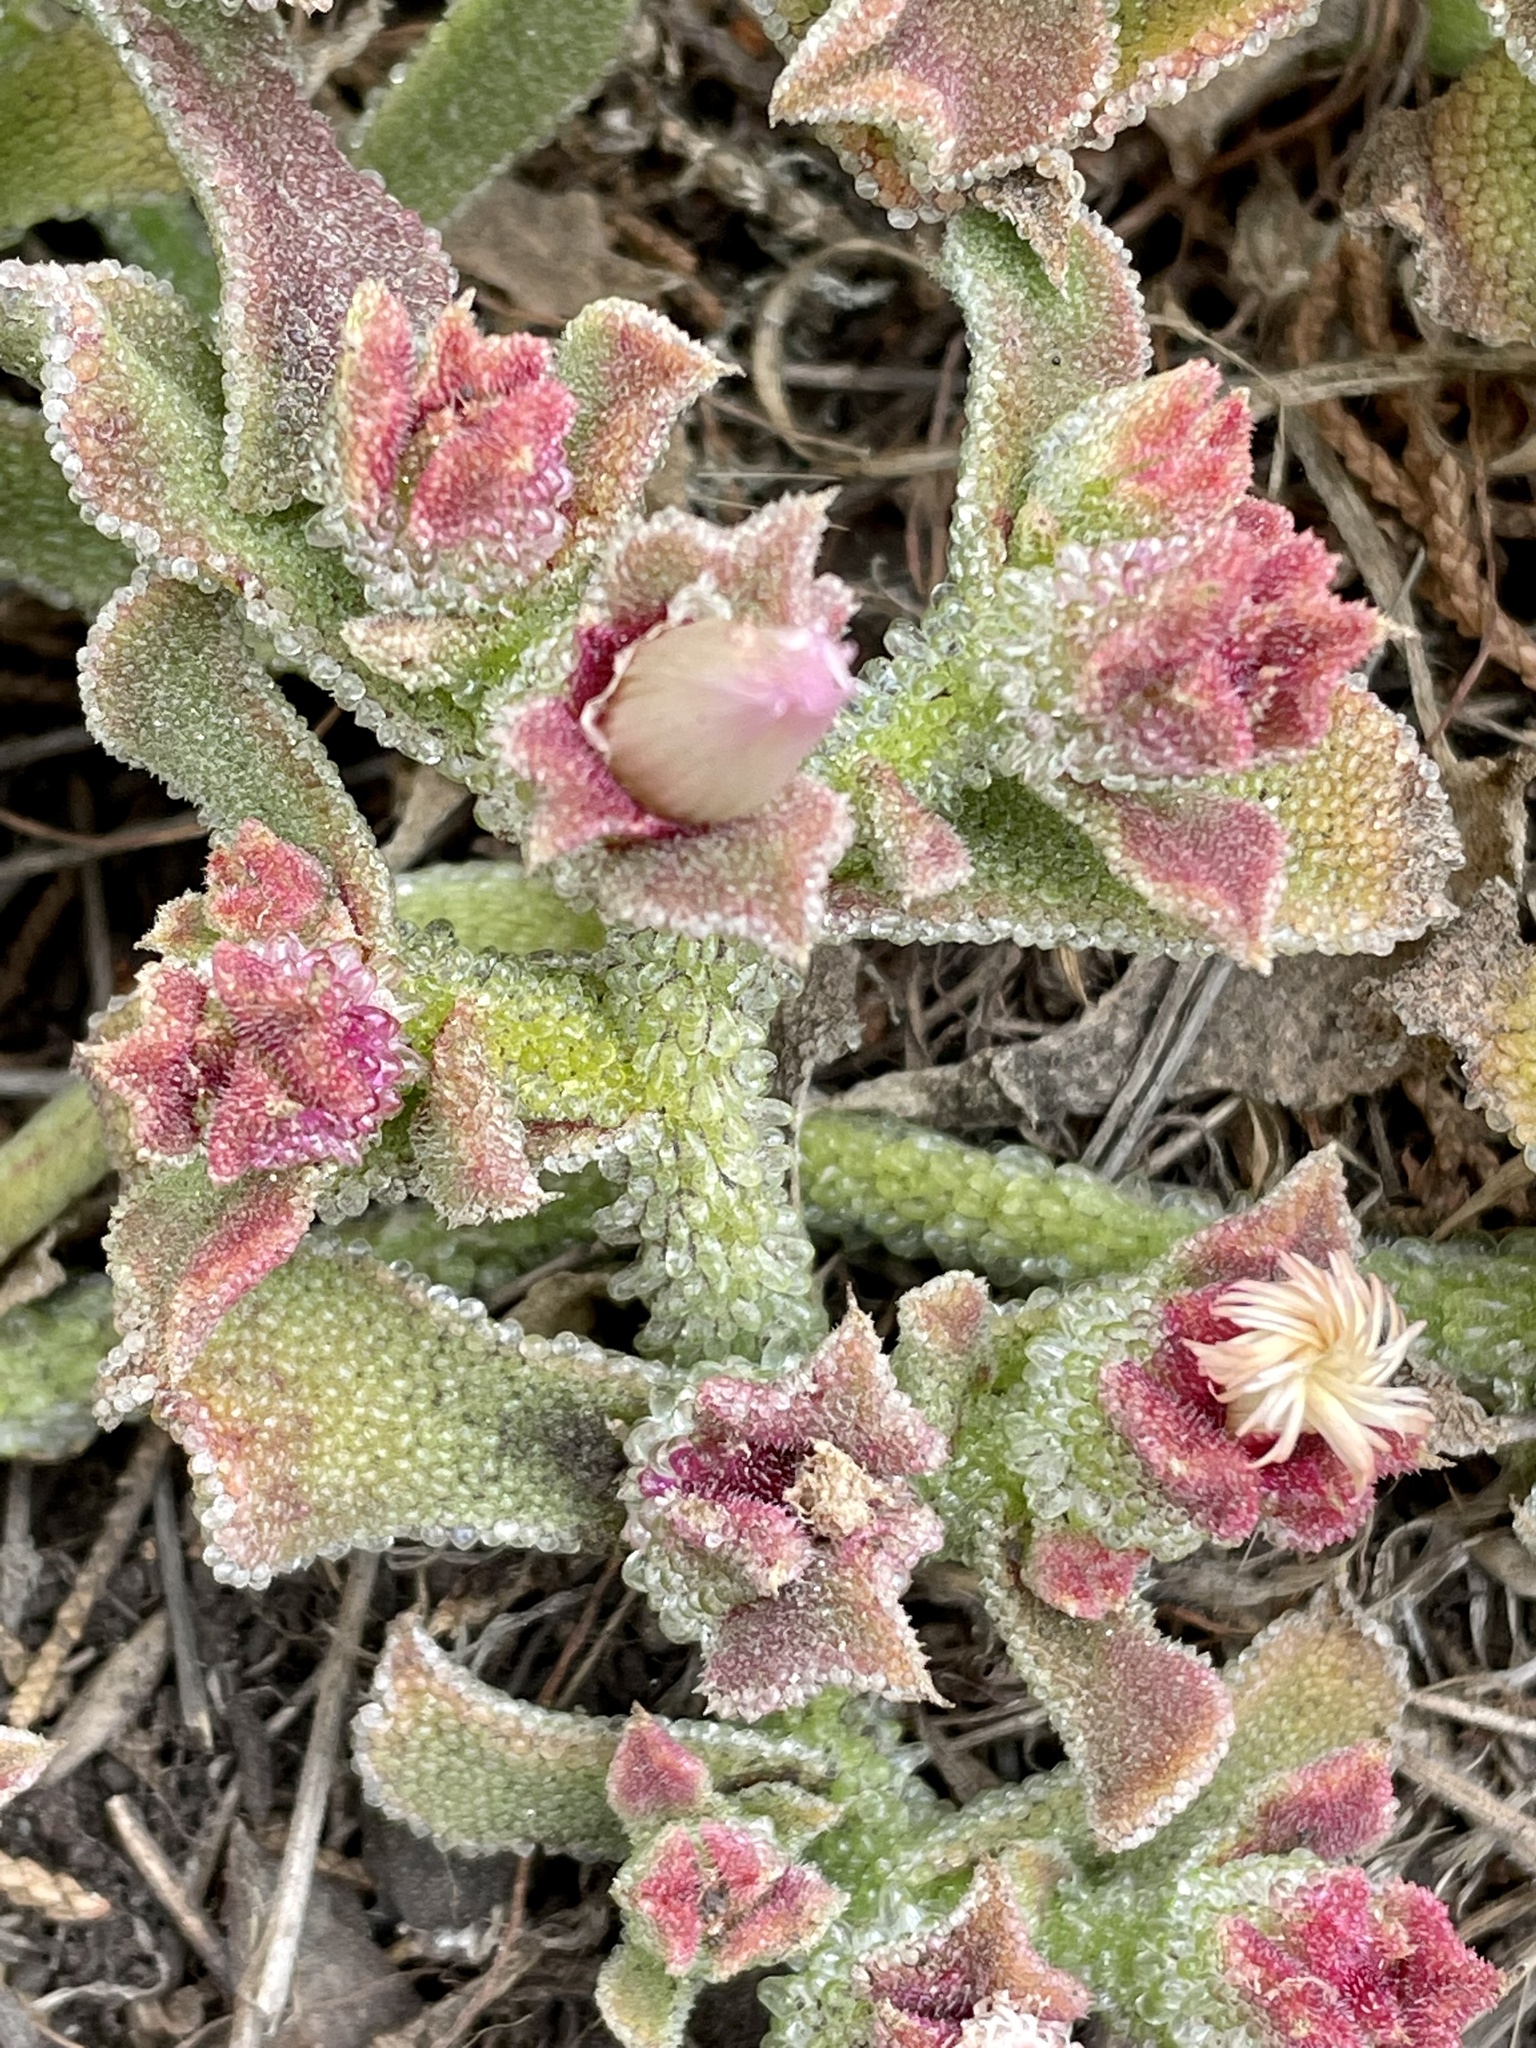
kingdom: Plantae
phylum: Tracheophyta
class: Magnoliopsida
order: Caryophyllales
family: Aizoaceae
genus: Mesembryanthemum
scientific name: Mesembryanthemum crystallinum
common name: Common iceplant
